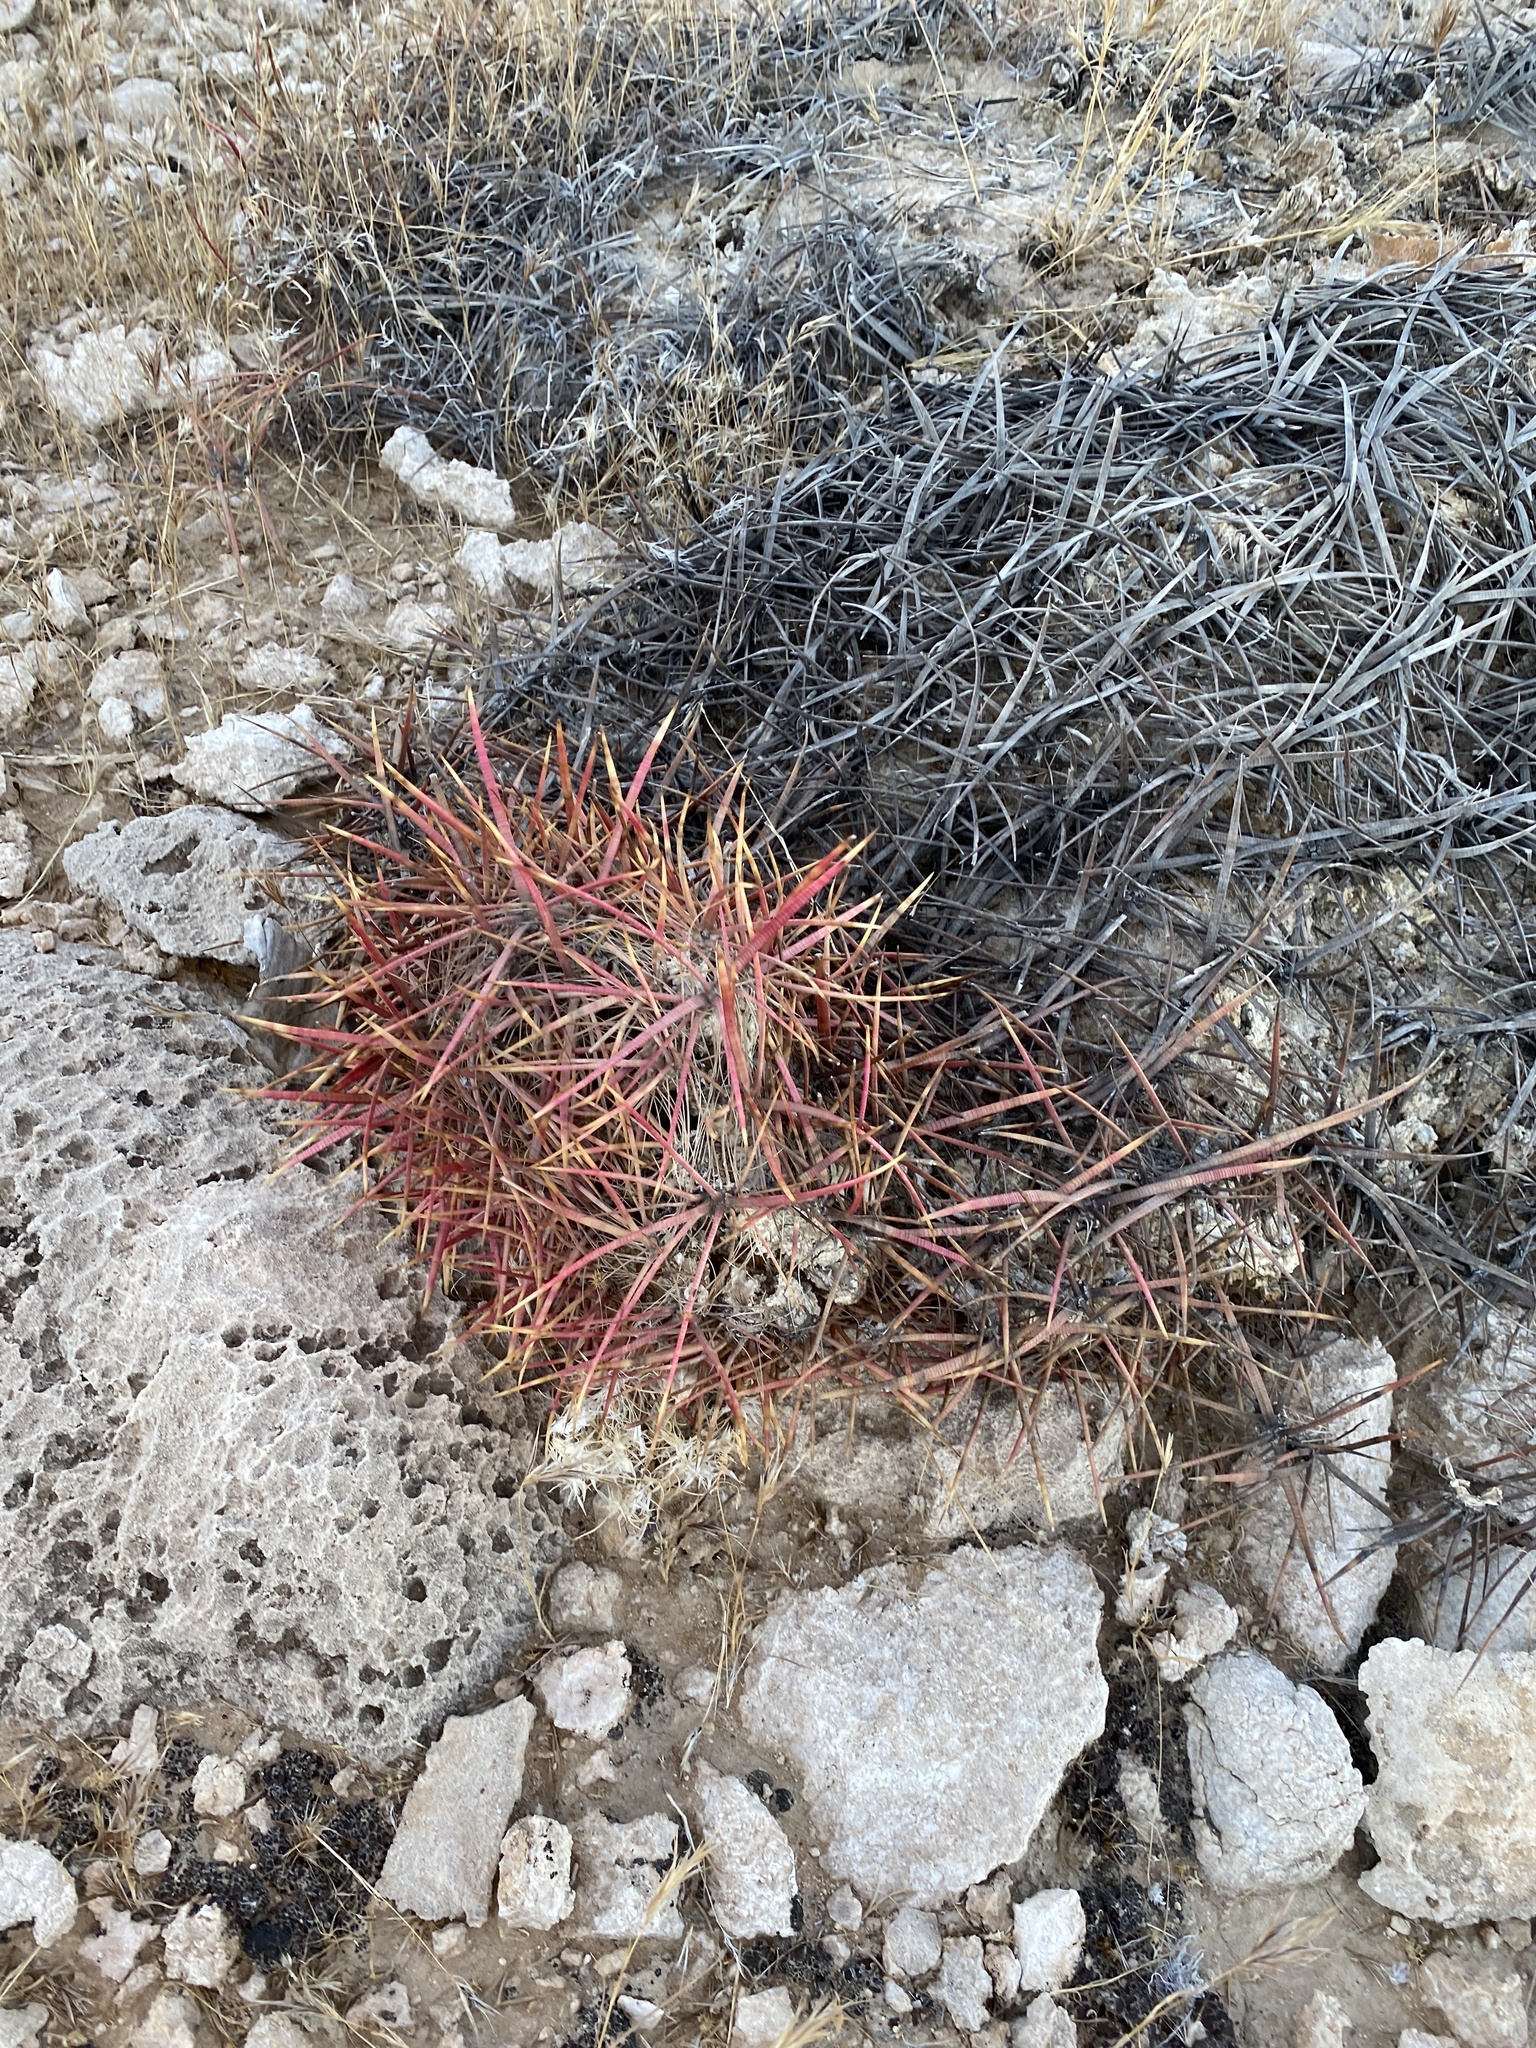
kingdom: Plantae
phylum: Tracheophyta
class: Magnoliopsida
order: Caryophyllales
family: Cactaceae
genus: Ferocactus
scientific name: Ferocactus cylindraceus
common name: California barrel cactus
